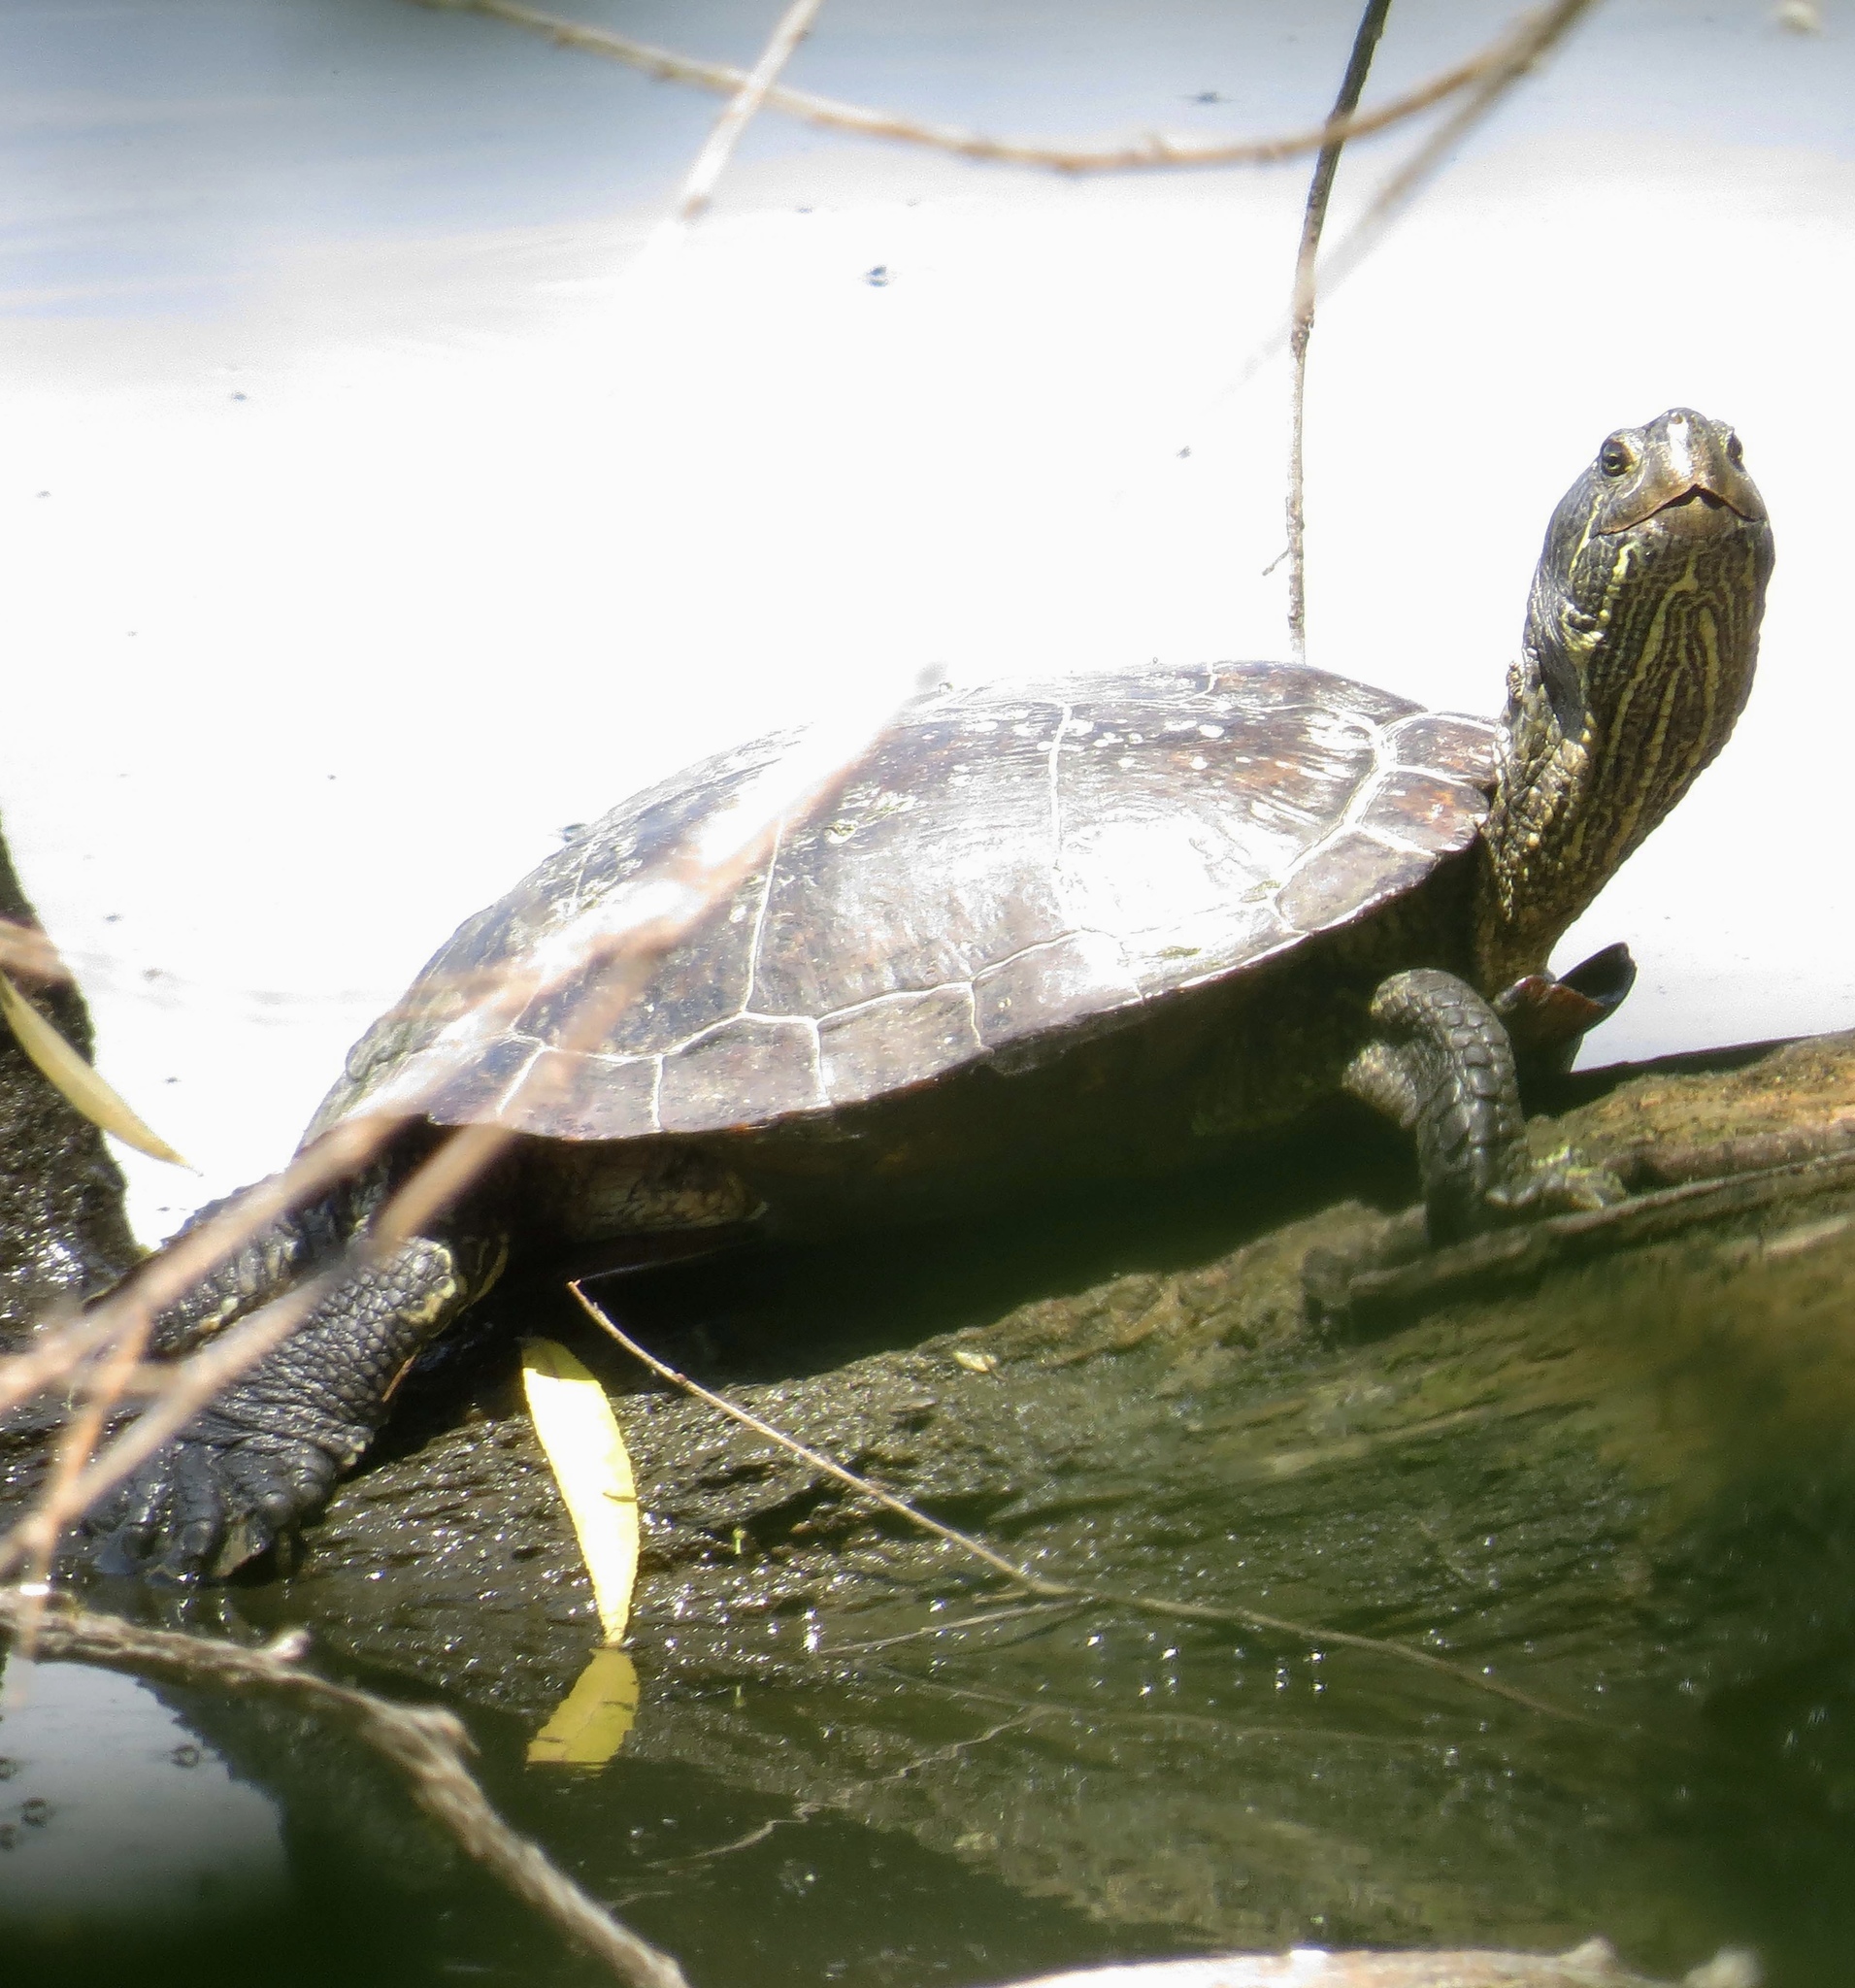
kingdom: Animalia
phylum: Chordata
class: Testudines
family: Emydidae
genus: Trachemys
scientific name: Trachemys scripta
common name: Slider
